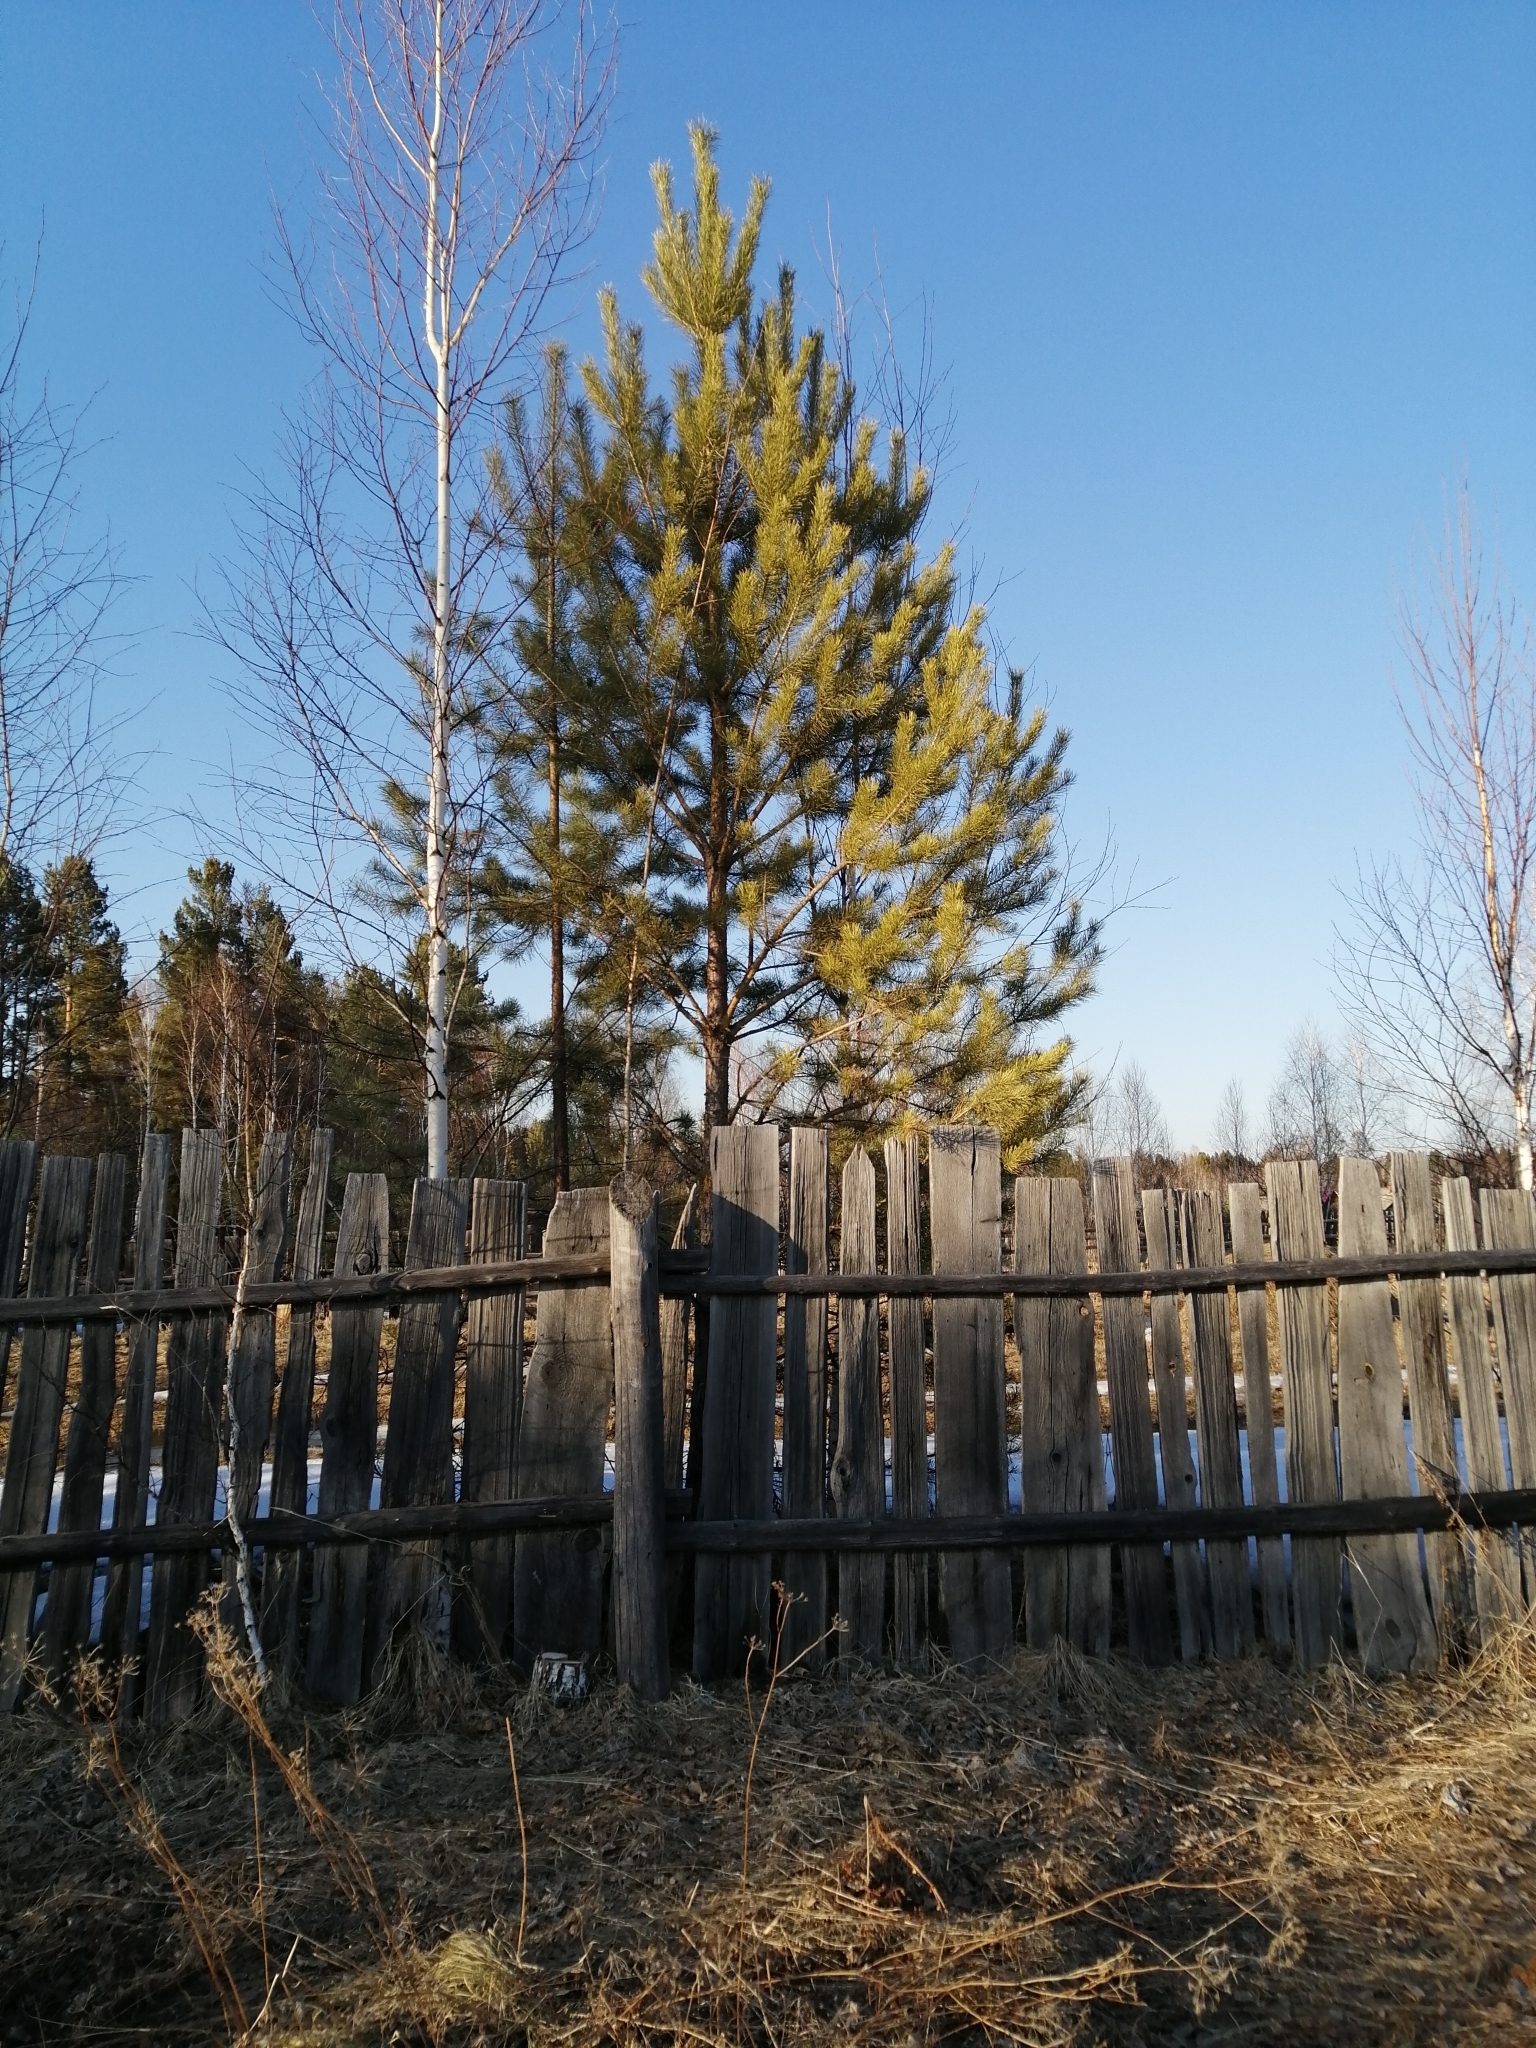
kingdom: Plantae
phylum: Tracheophyta
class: Pinopsida
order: Pinales
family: Pinaceae
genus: Pinus
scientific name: Pinus sylvestris
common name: Scots pine
